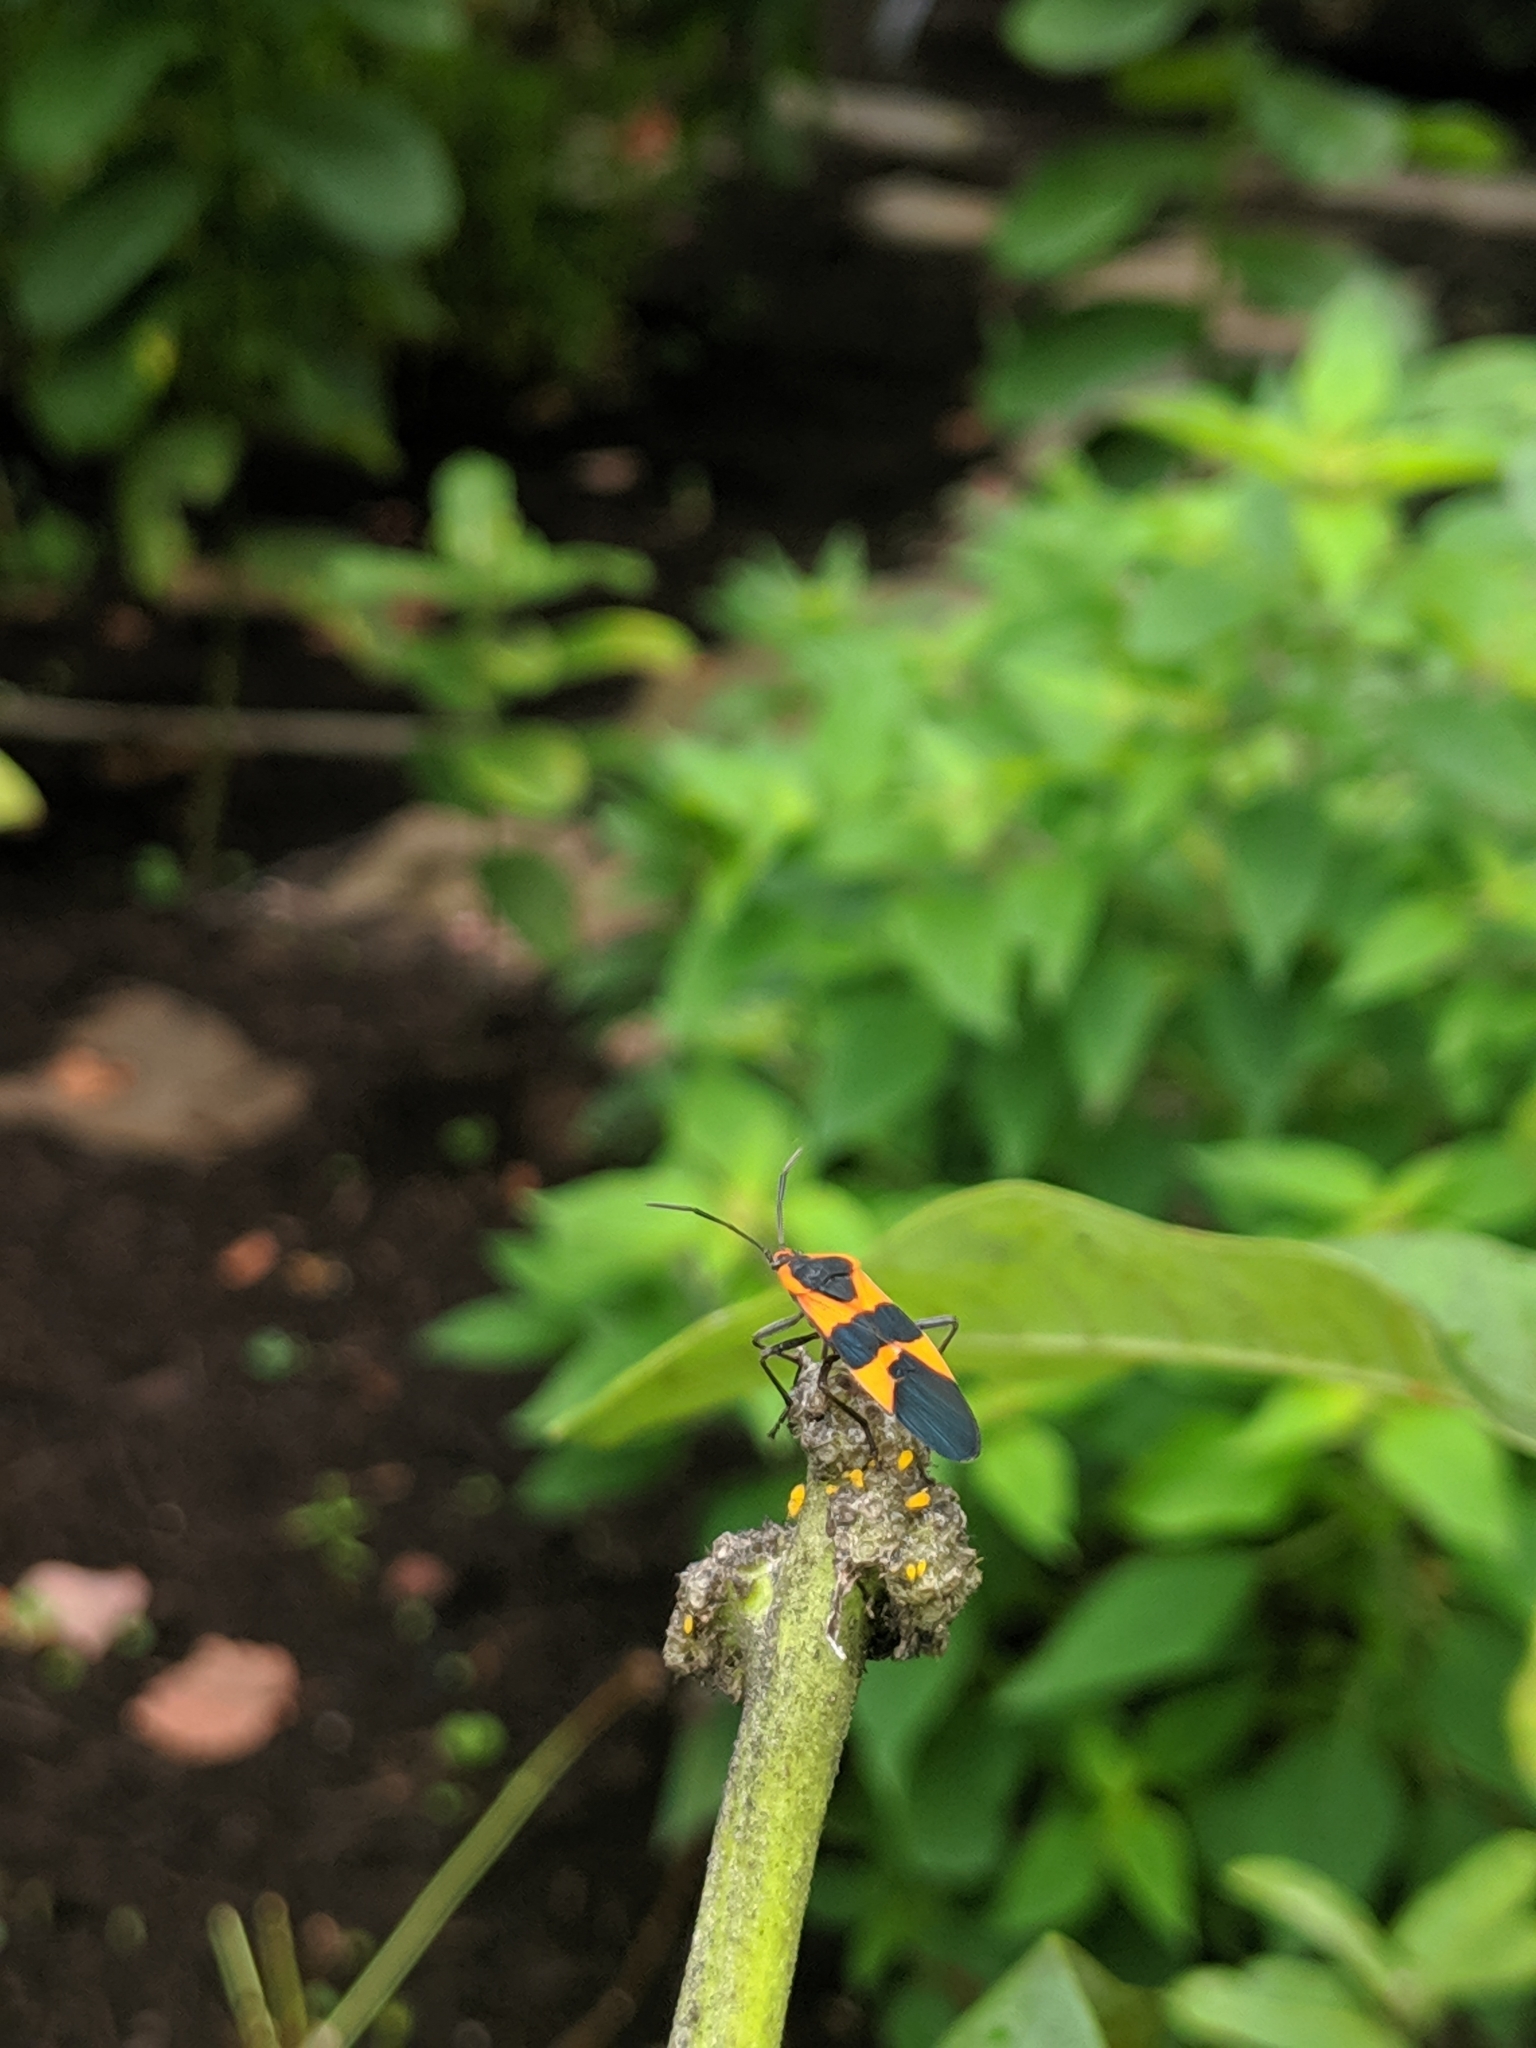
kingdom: Animalia
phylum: Arthropoda
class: Insecta
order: Hemiptera
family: Lygaeidae
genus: Oncopeltus
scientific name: Oncopeltus fasciatus
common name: Large milkweed bug
